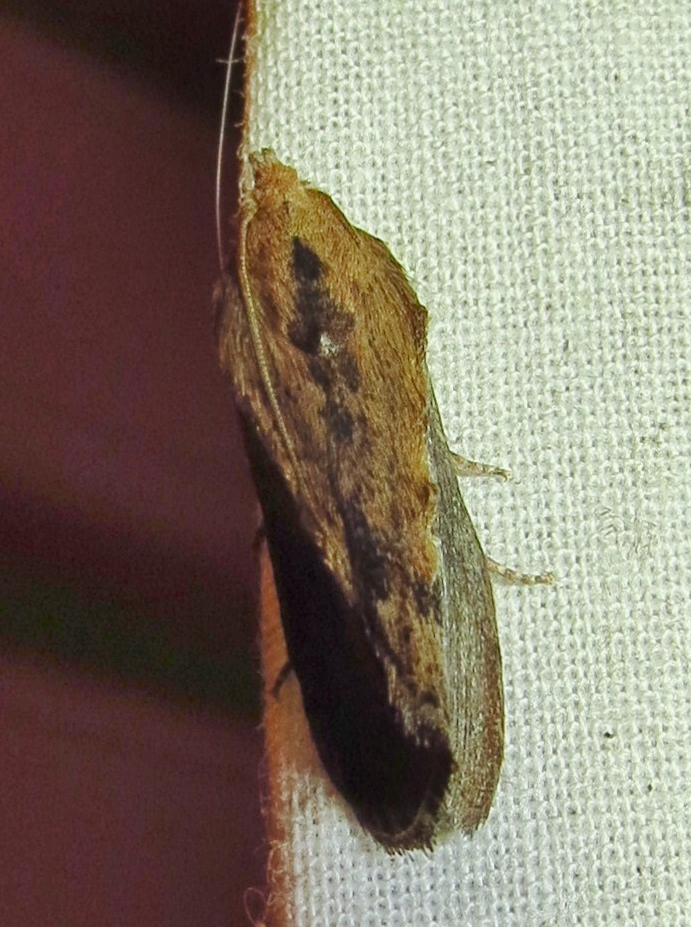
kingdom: Animalia
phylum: Arthropoda
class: Insecta
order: Lepidoptera
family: Pyralidae
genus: Galleria
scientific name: Galleria mellonella
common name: Greater wax moth
